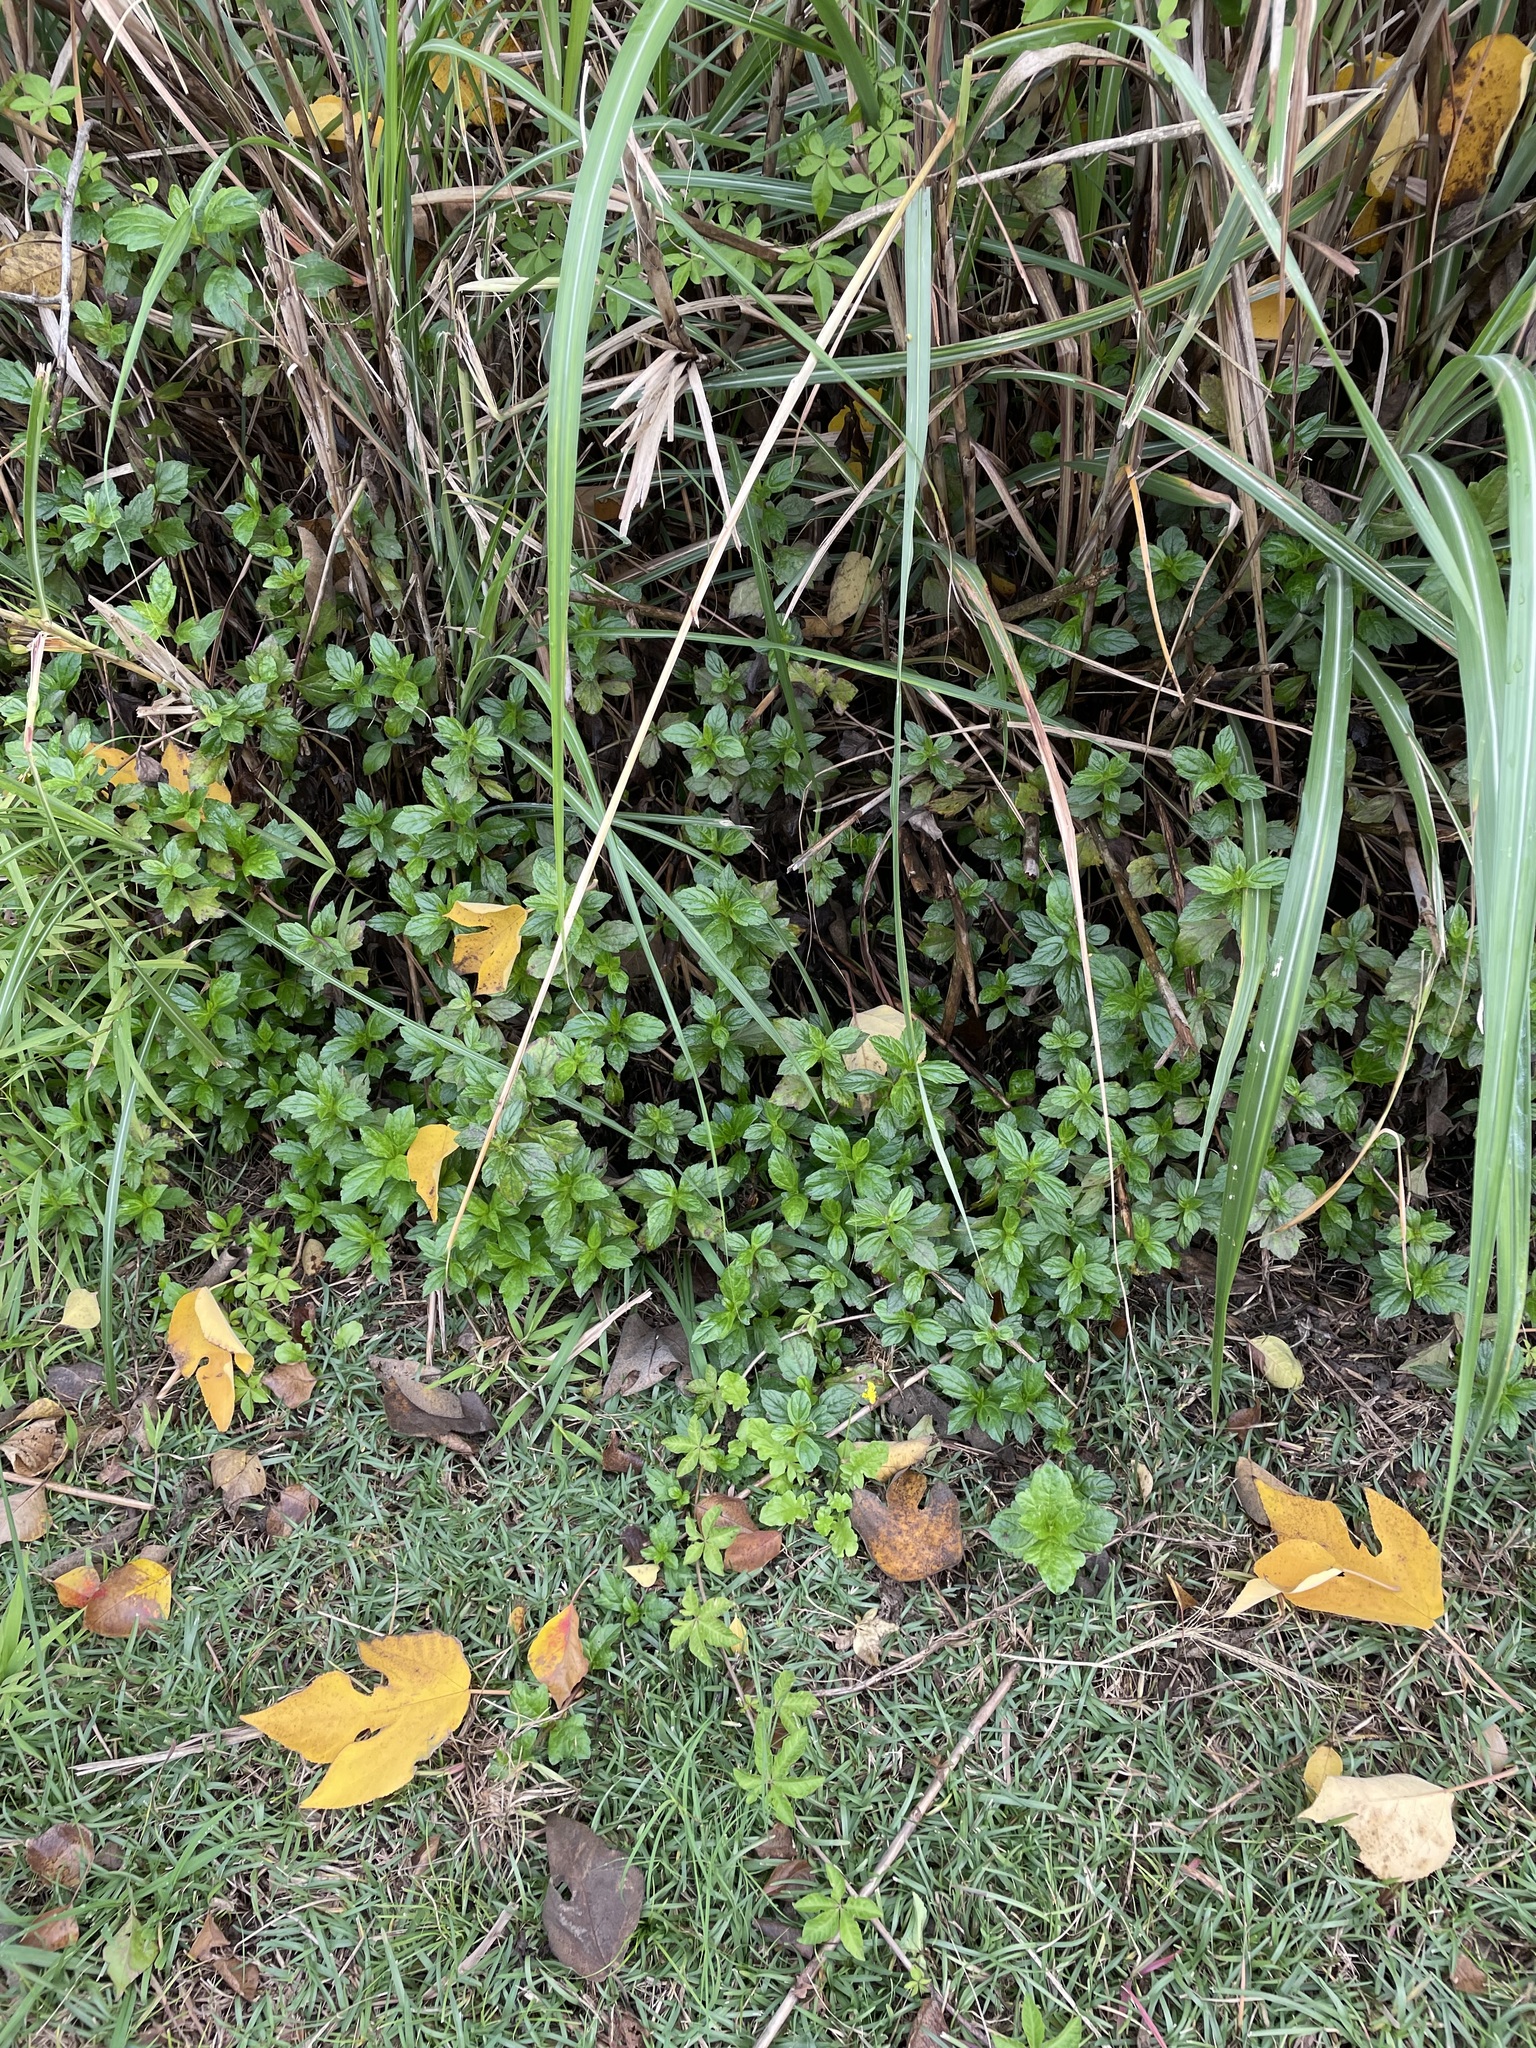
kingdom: Plantae
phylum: Tracheophyta
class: Magnoliopsida
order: Asterales
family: Asteraceae
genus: Sphagneticola
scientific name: Sphagneticola trilobata
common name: Bay biscayne creeping-oxeye
